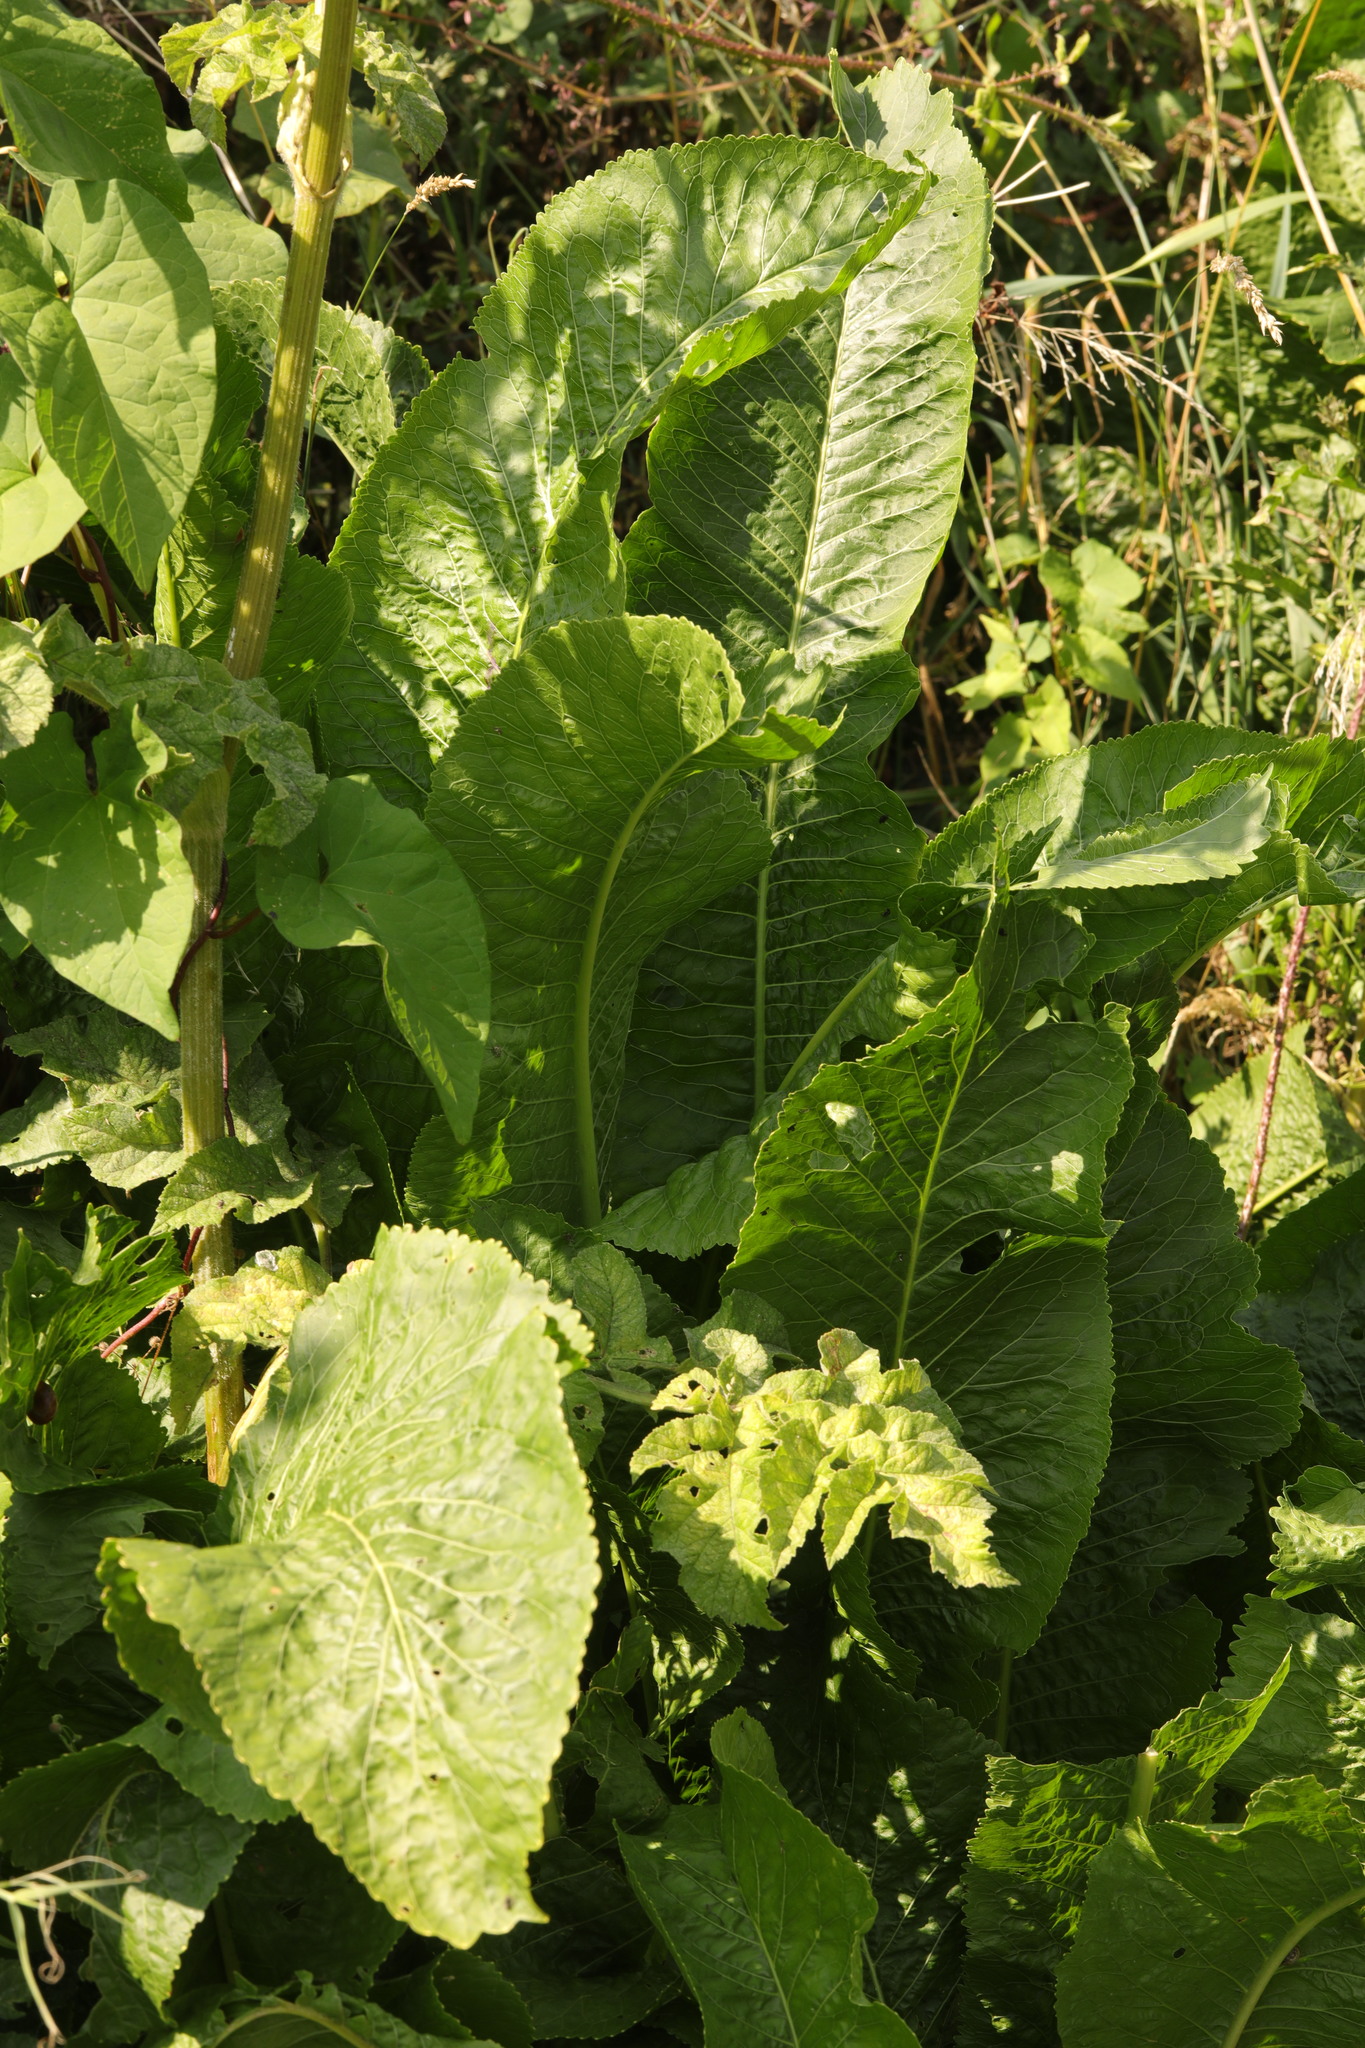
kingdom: Plantae
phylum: Tracheophyta
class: Magnoliopsida
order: Brassicales
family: Brassicaceae
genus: Armoracia
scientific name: Armoracia rusticana
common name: Horseradish
